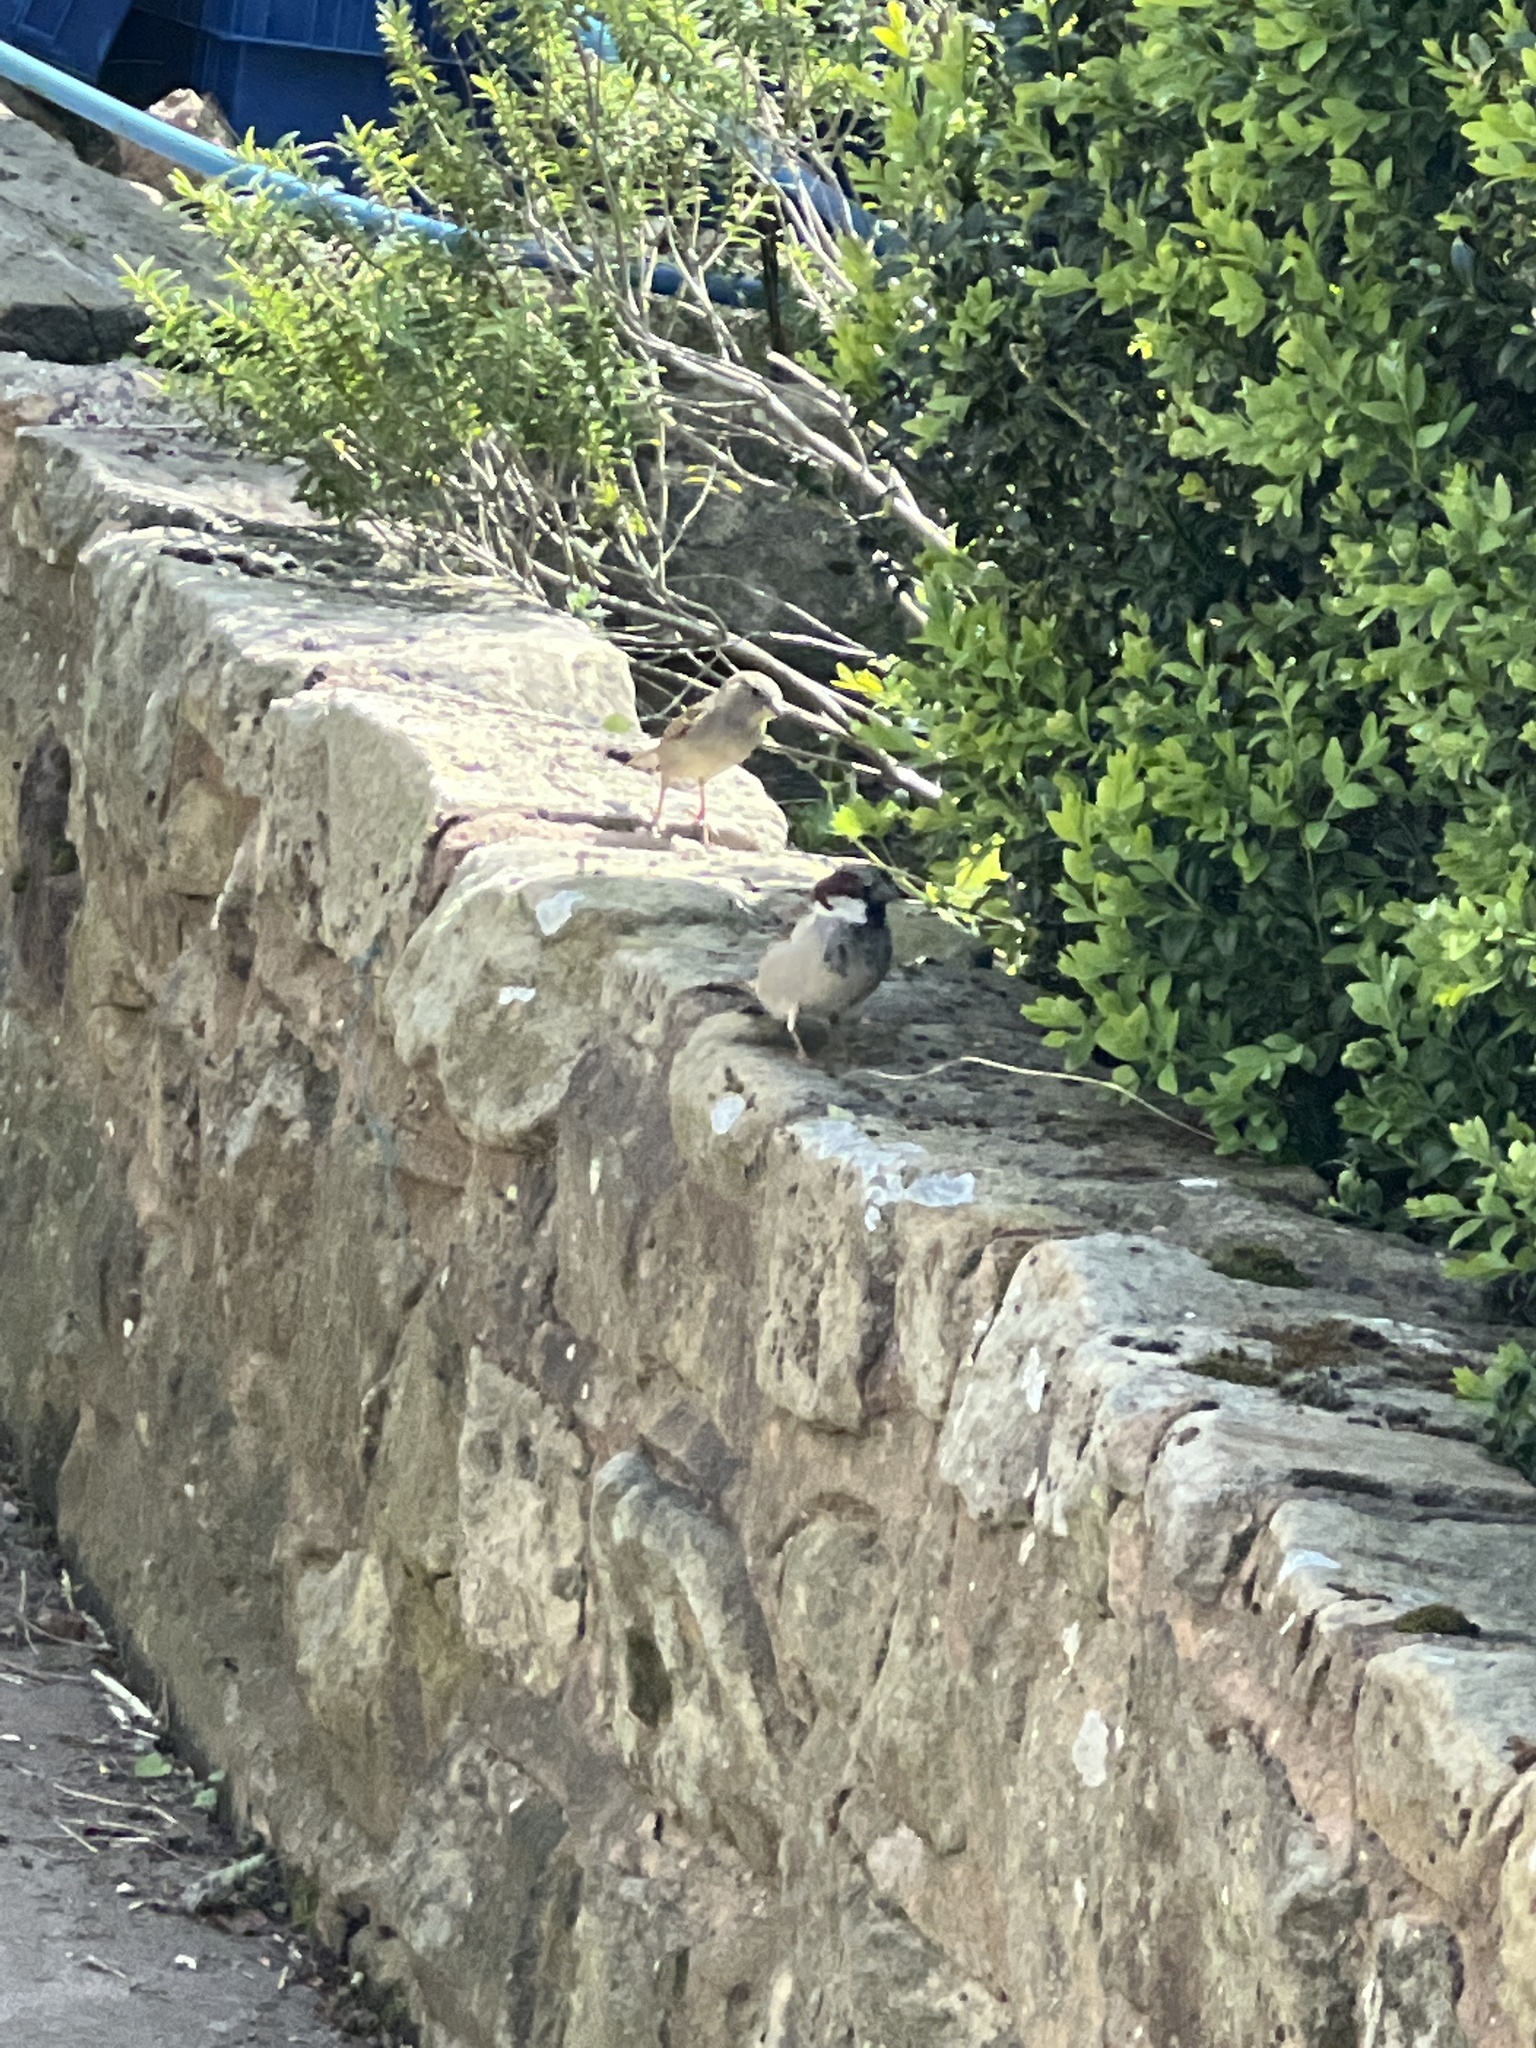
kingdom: Animalia
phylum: Chordata
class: Aves
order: Passeriformes
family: Passeridae
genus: Passer
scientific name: Passer domesticus
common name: House sparrow
